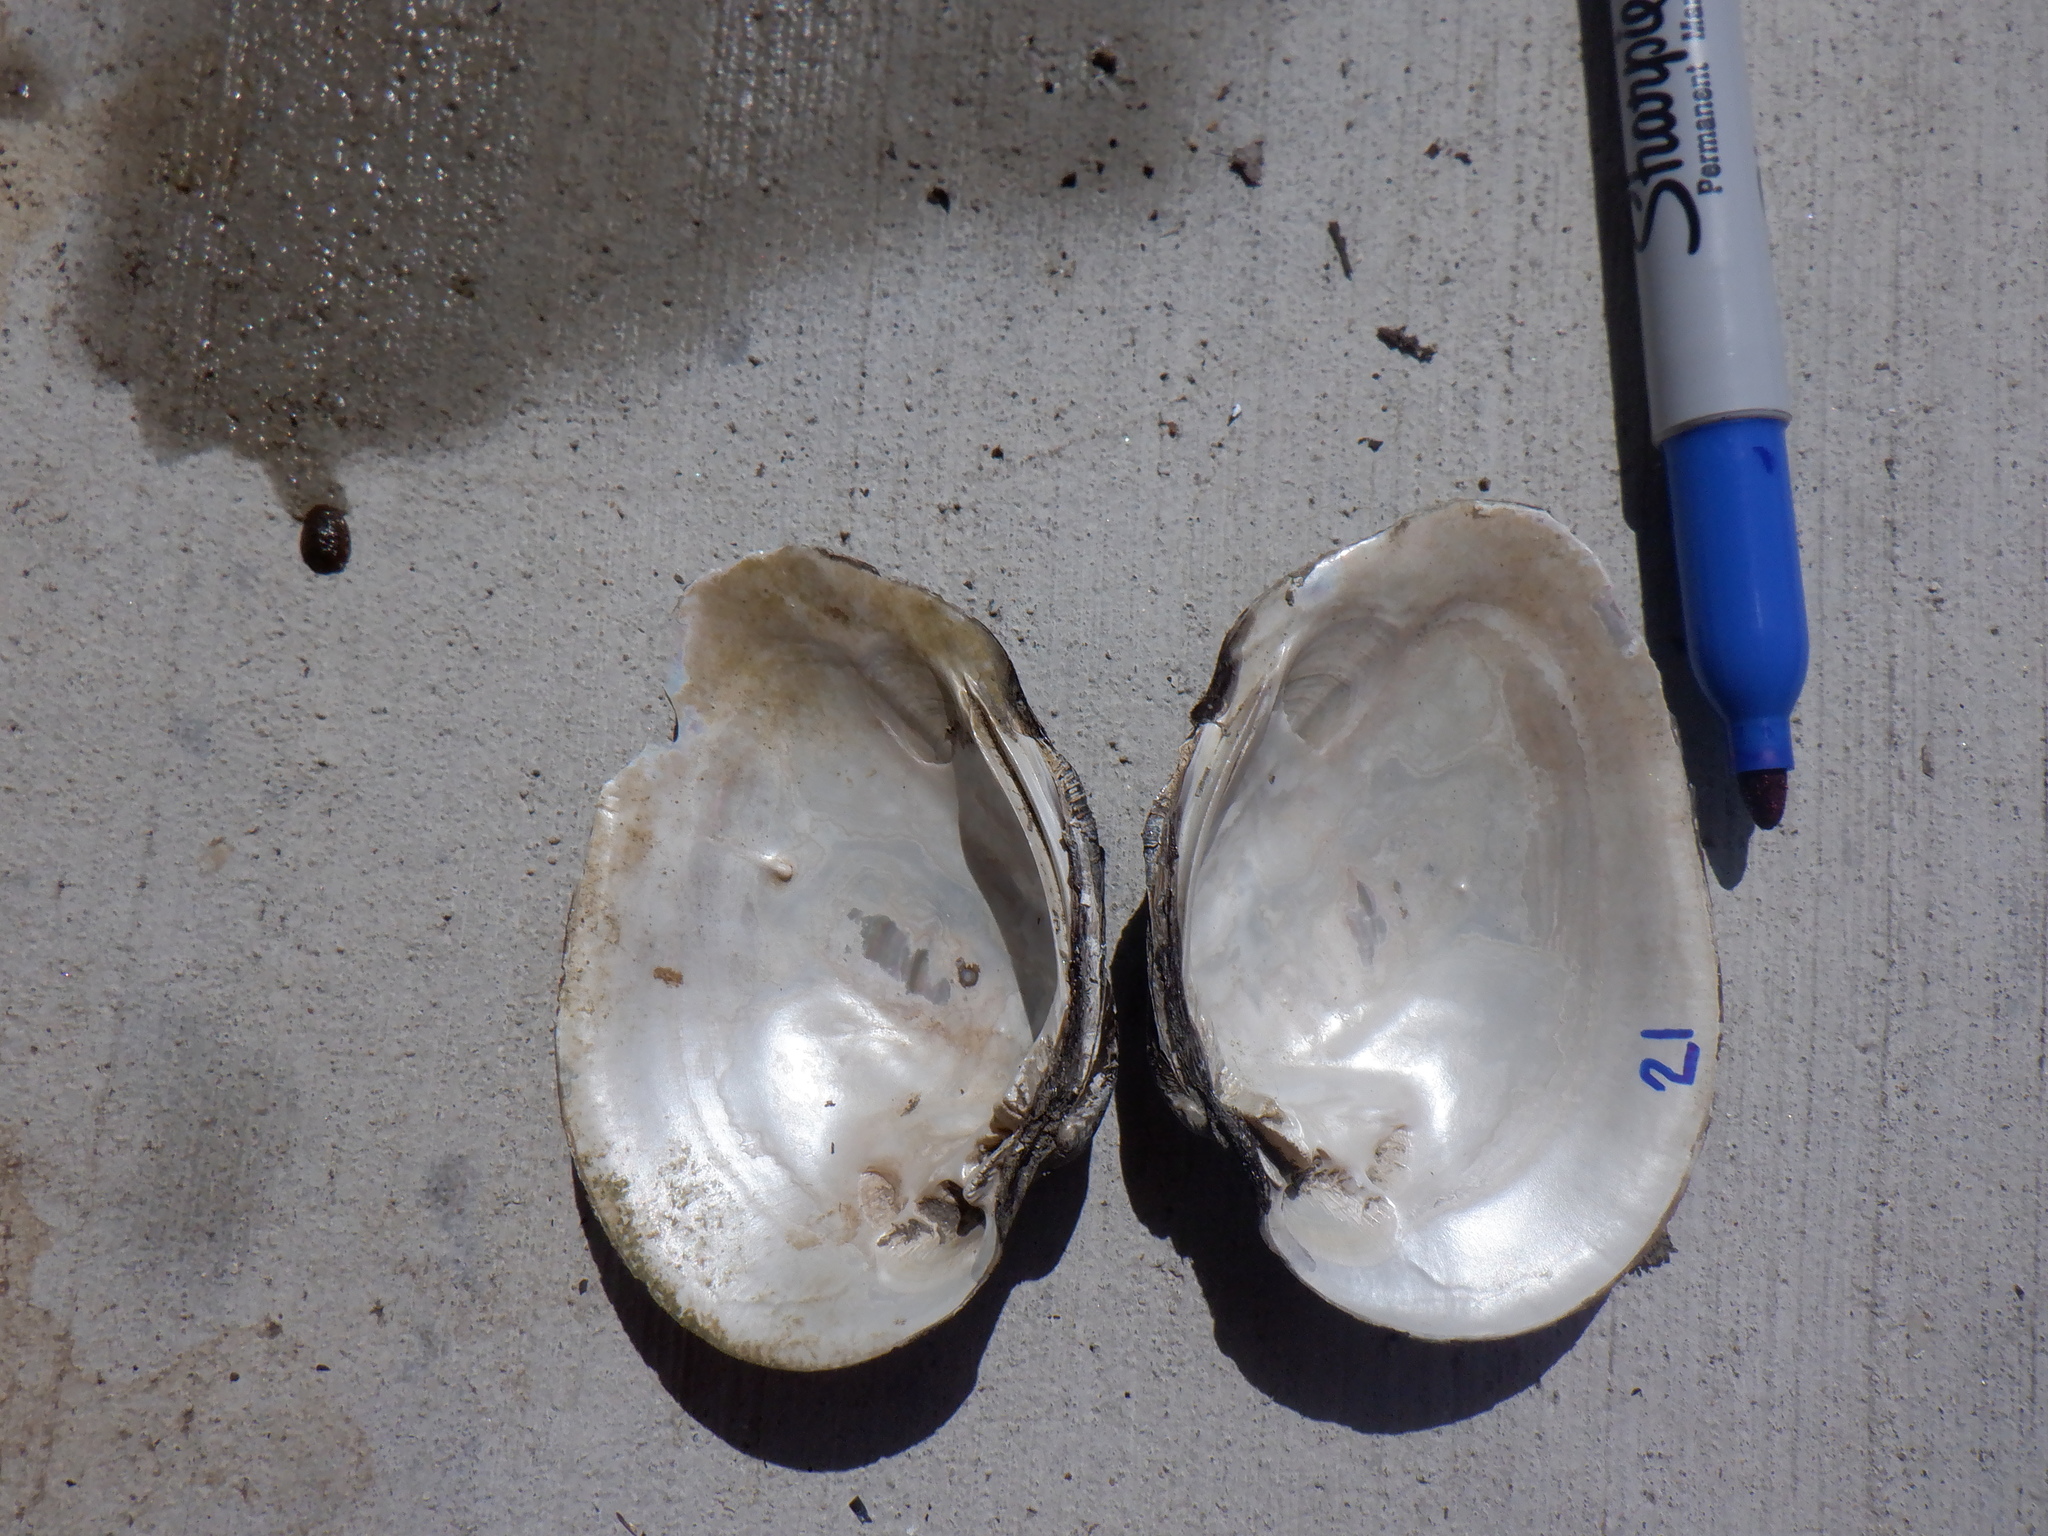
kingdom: Animalia
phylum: Mollusca
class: Bivalvia
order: Unionida
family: Unionidae
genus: Fusconaia
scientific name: Fusconaia flava
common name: Wabash pigtoe
